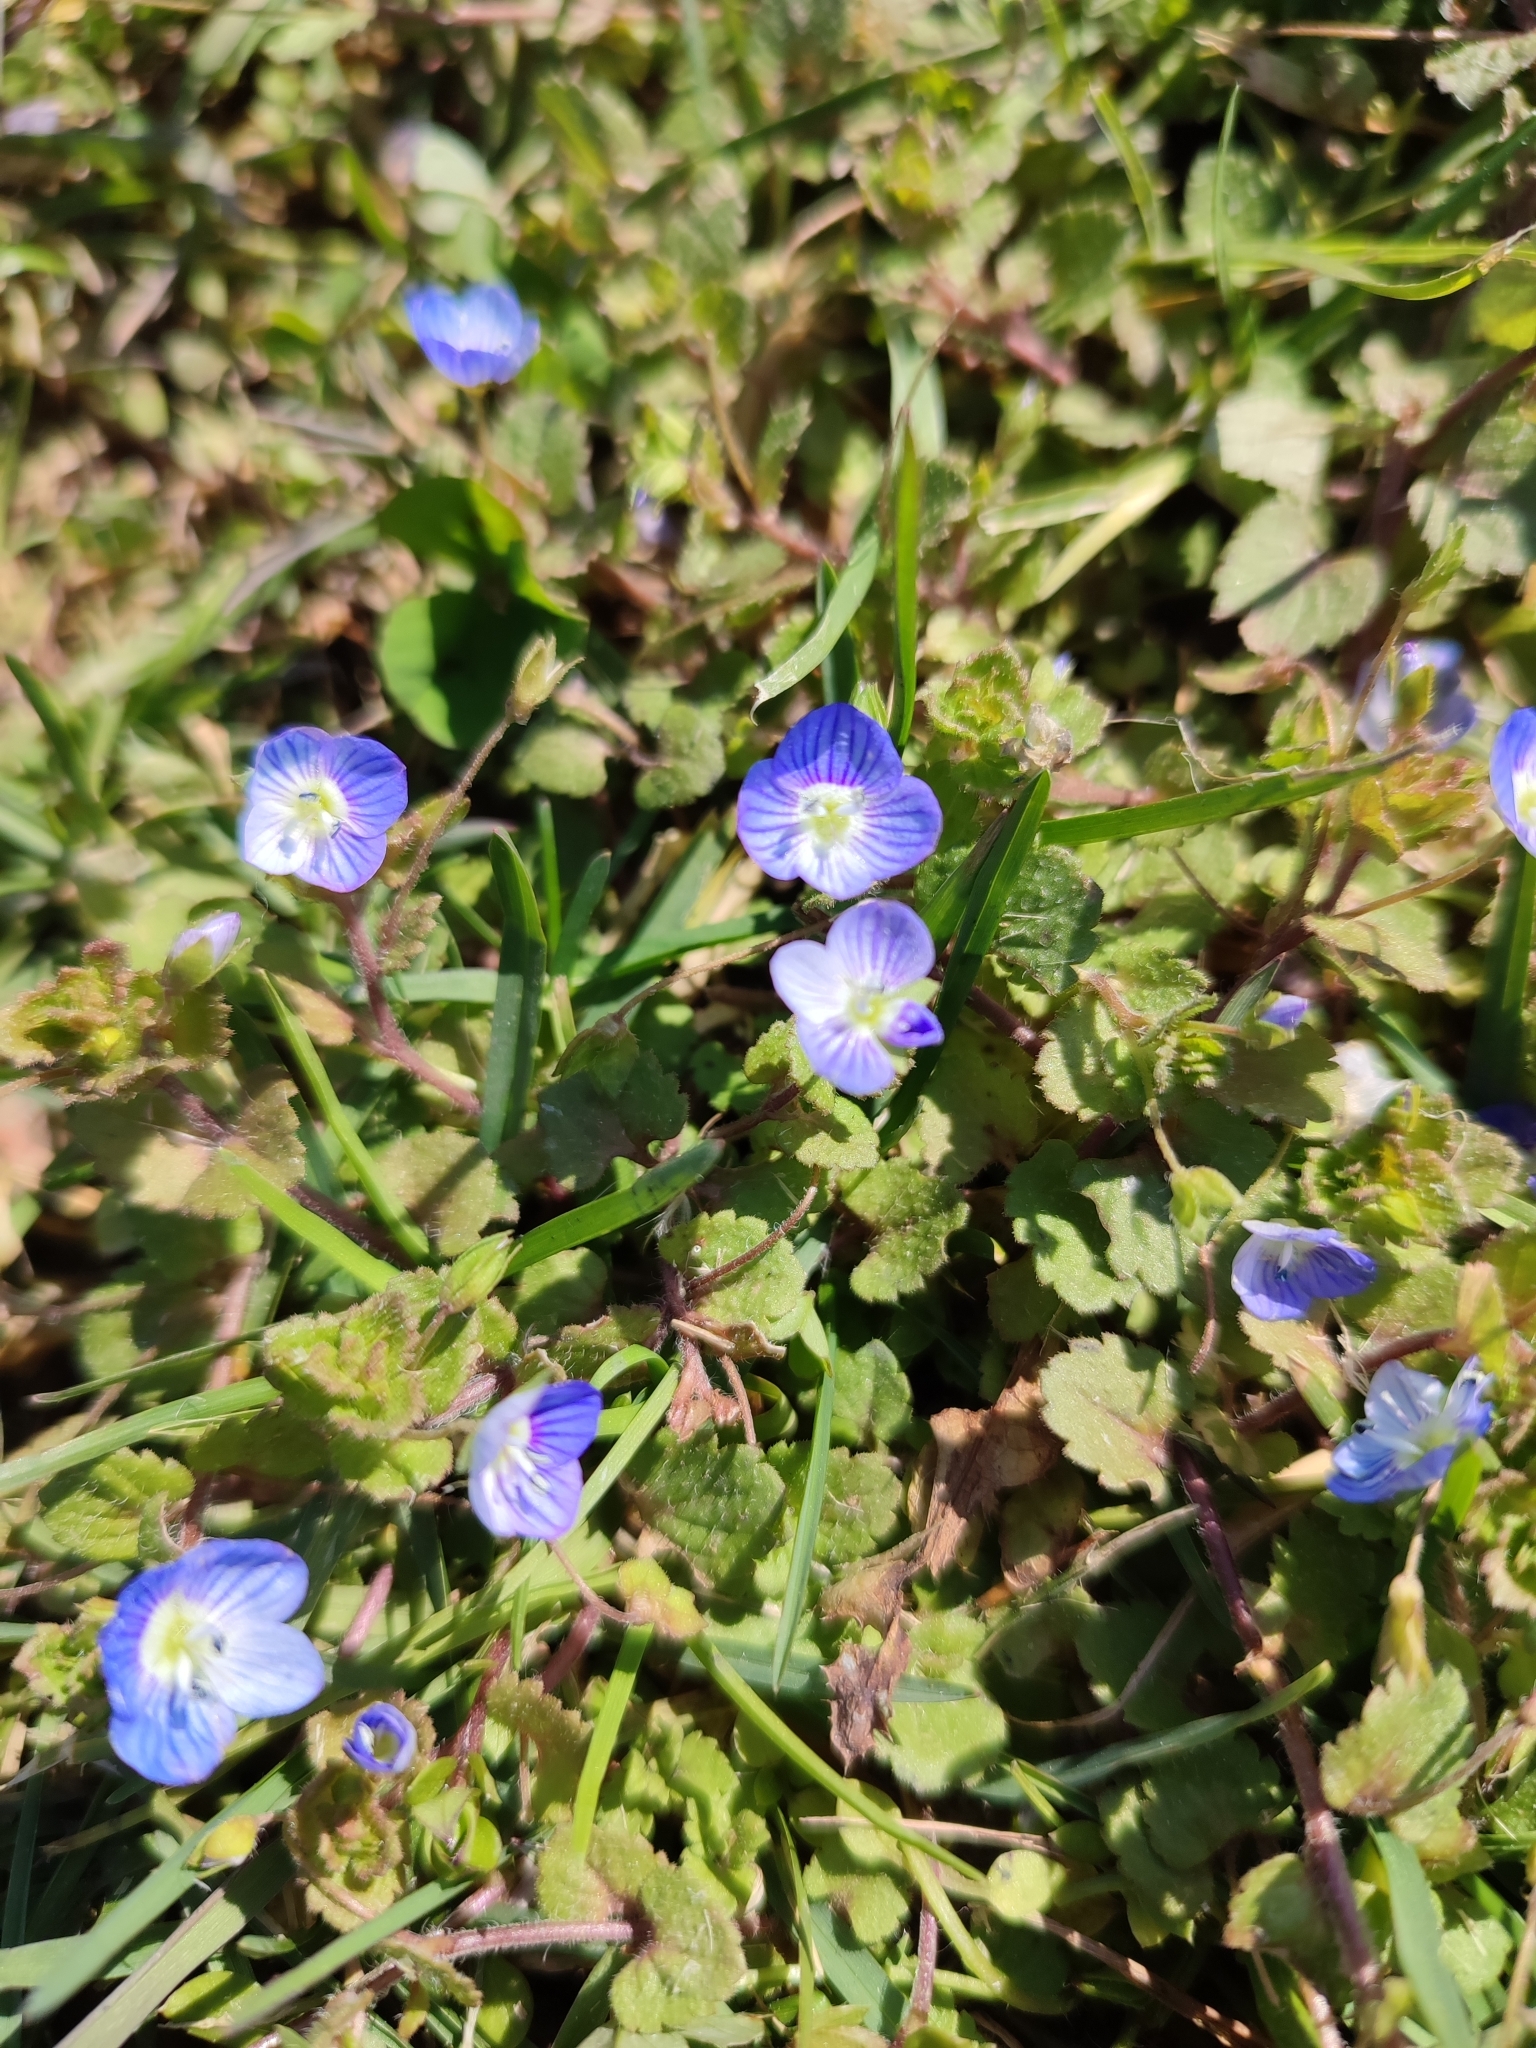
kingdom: Plantae
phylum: Tracheophyta
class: Magnoliopsida
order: Lamiales
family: Plantaginaceae
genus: Veronica
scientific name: Veronica persica
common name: Common field-speedwell
